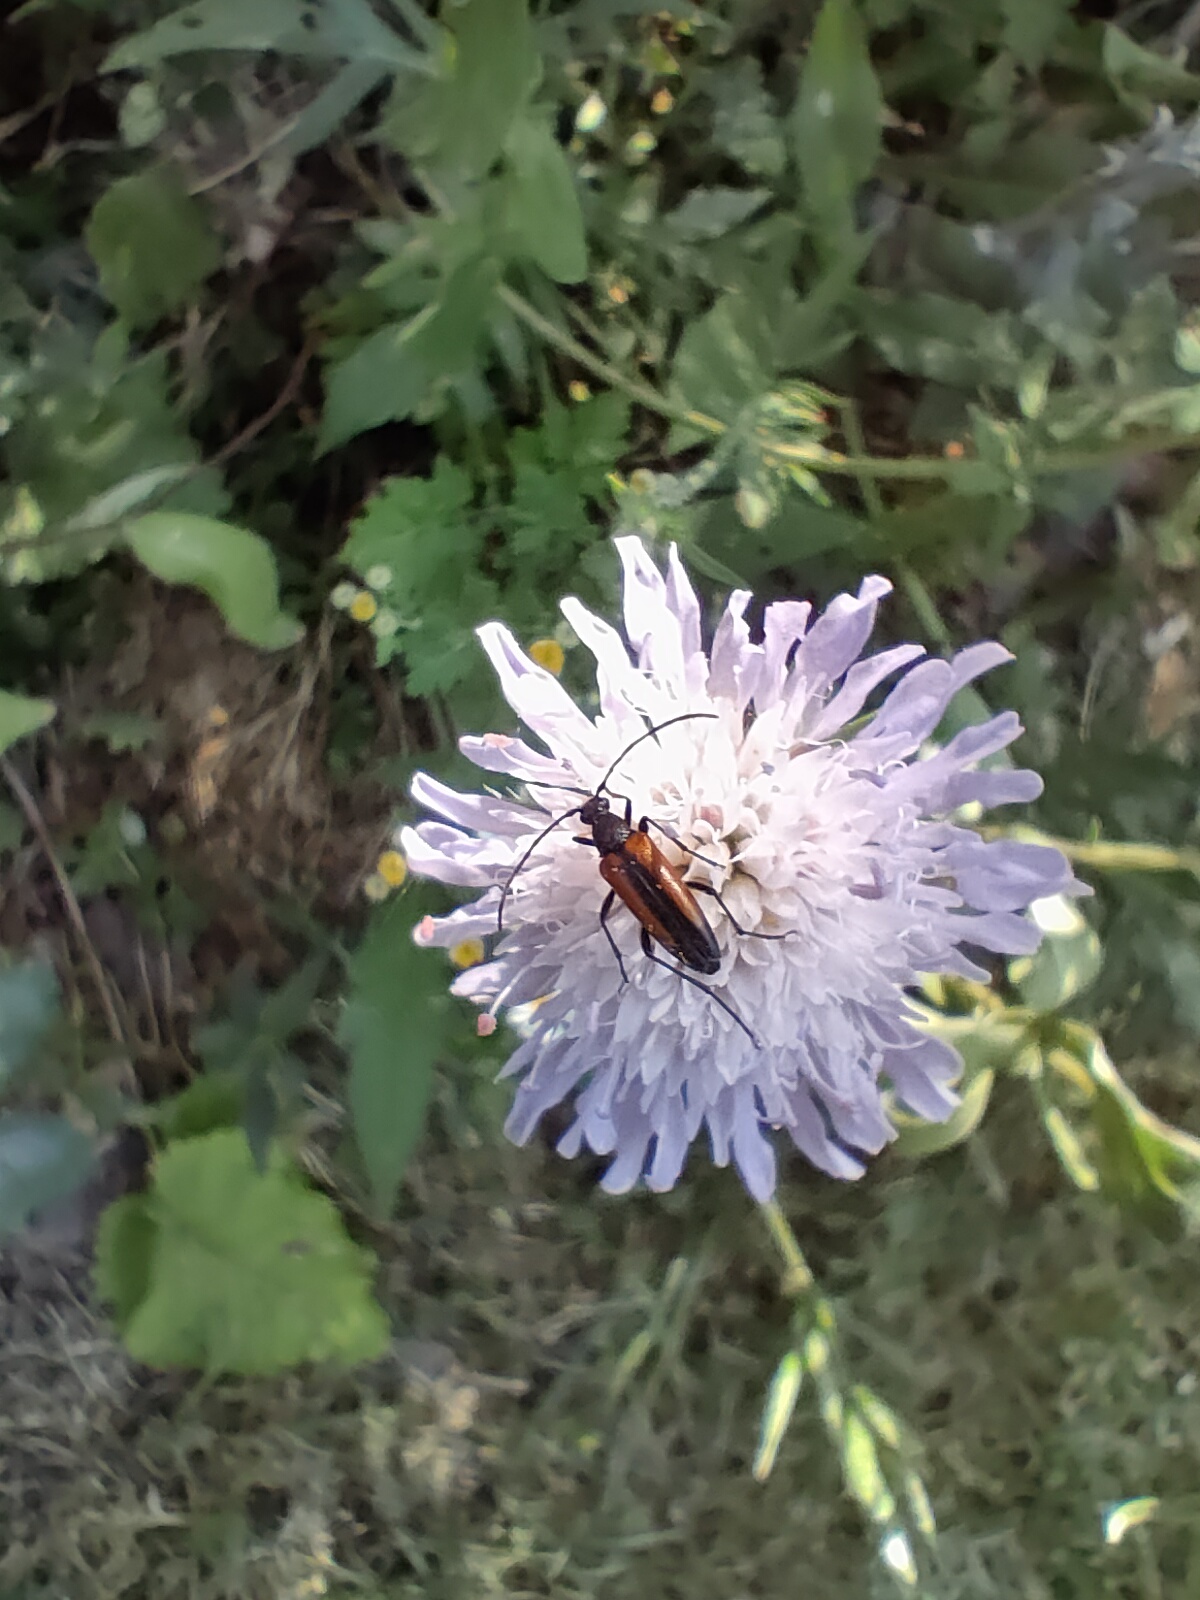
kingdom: Animalia
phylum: Arthropoda
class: Insecta
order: Coleoptera
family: Cerambycidae
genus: Stenurella
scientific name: Stenurella melanura
